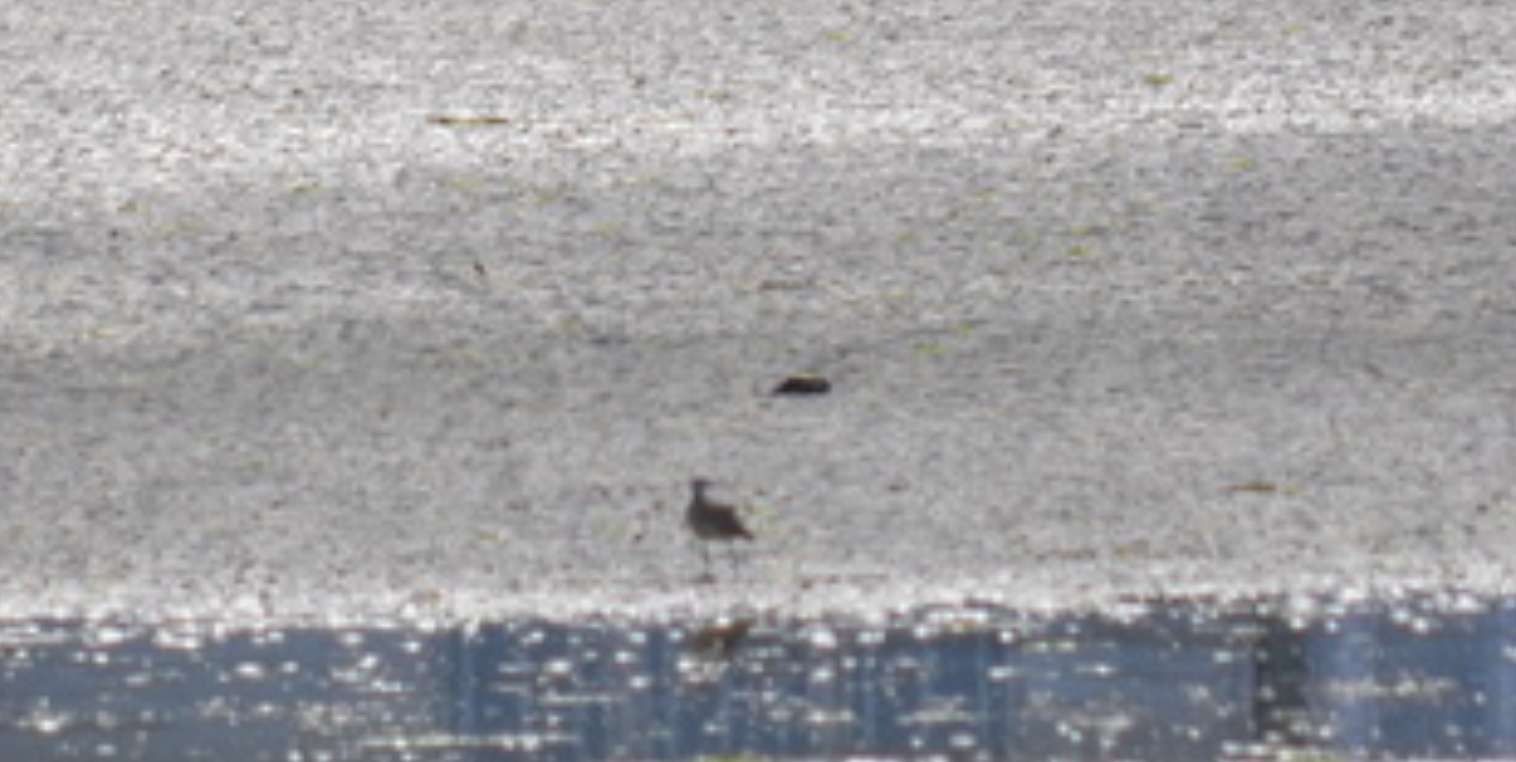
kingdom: Animalia
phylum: Chordata
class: Aves
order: Charadriiformes
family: Scolopacidae
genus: Numenius
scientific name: Numenius phaeopus
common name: Whimbrel
